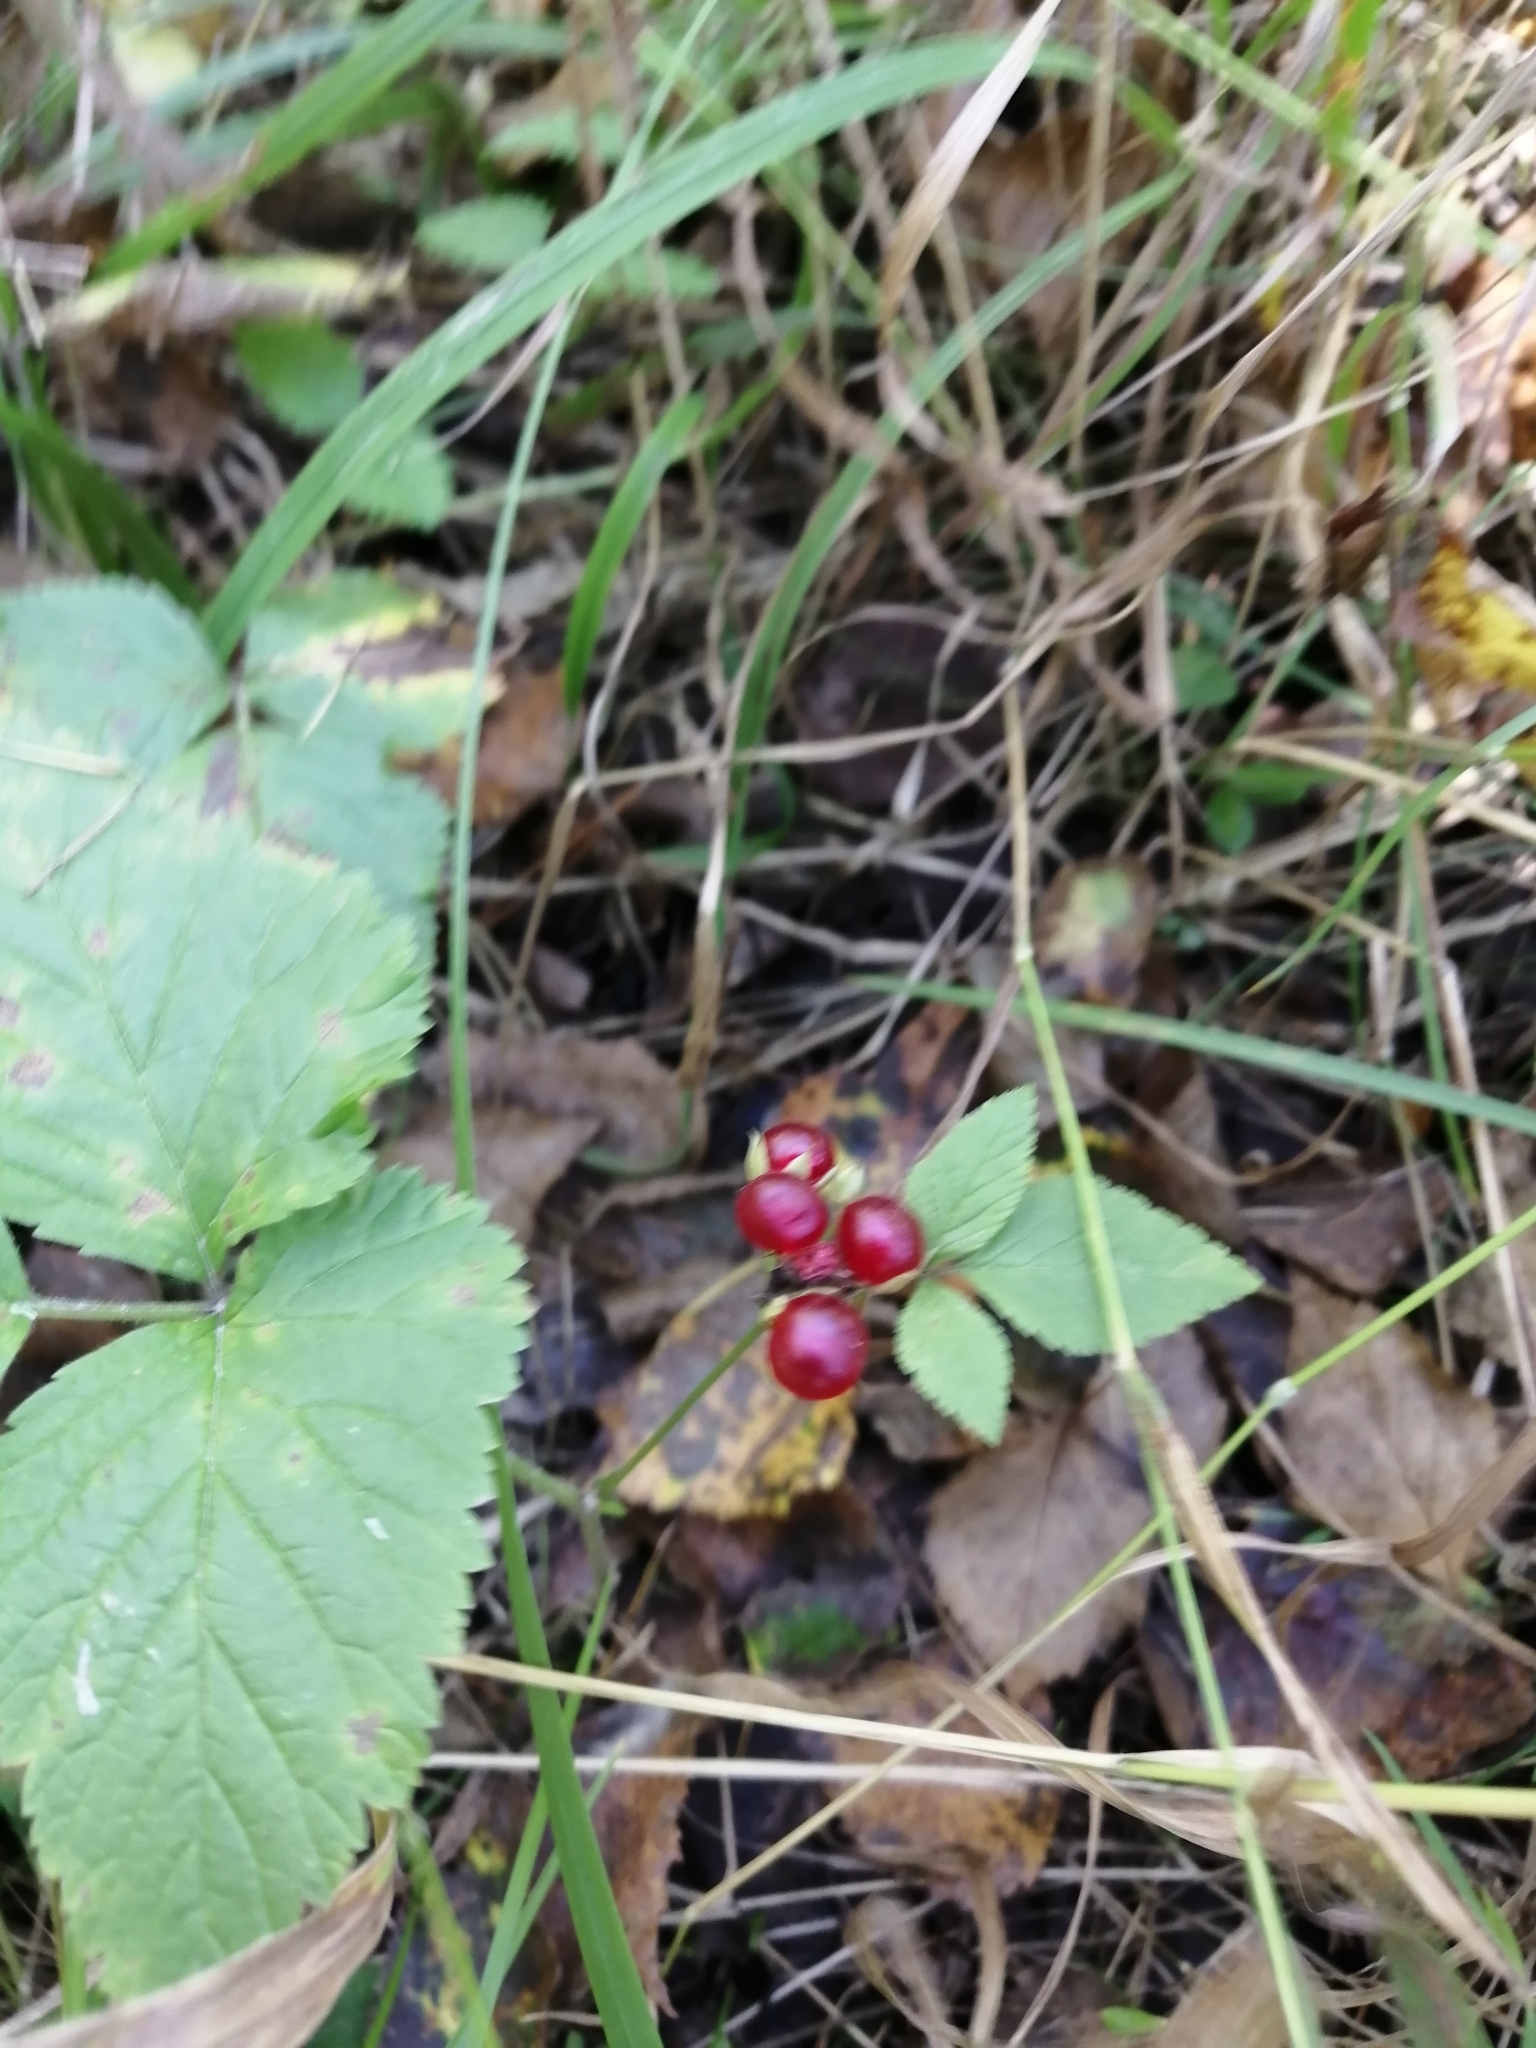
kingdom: Plantae
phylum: Tracheophyta
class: Magnoliopsida
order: Rosales
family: Rosaceae
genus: Rubus
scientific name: Rubus saxatilis
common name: Stone bramble
